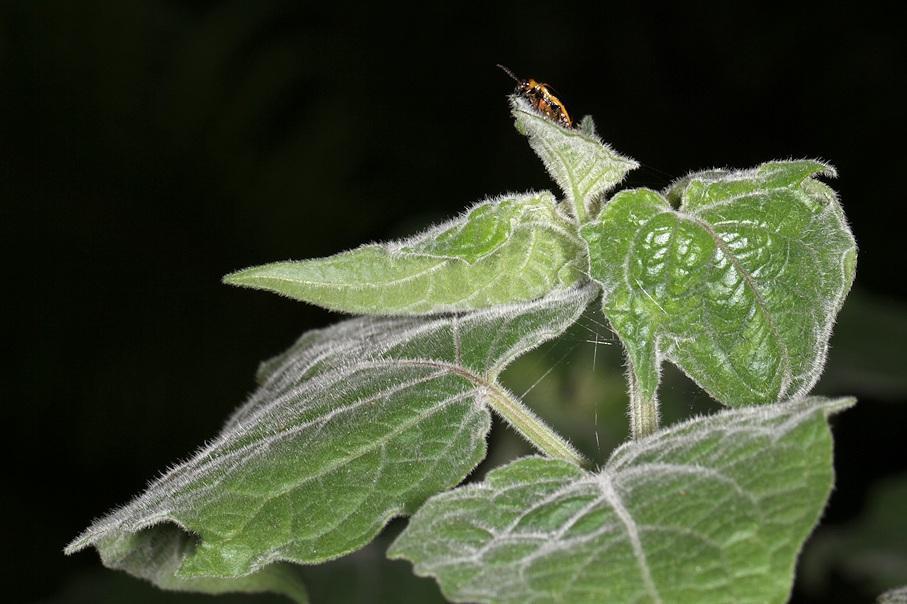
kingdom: Plantae
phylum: Tracheophyta
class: Magnoliopsida
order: Solanales
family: Solanaceae
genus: Physalis
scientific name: Physalis peruviana
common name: Cape-gooseberry
